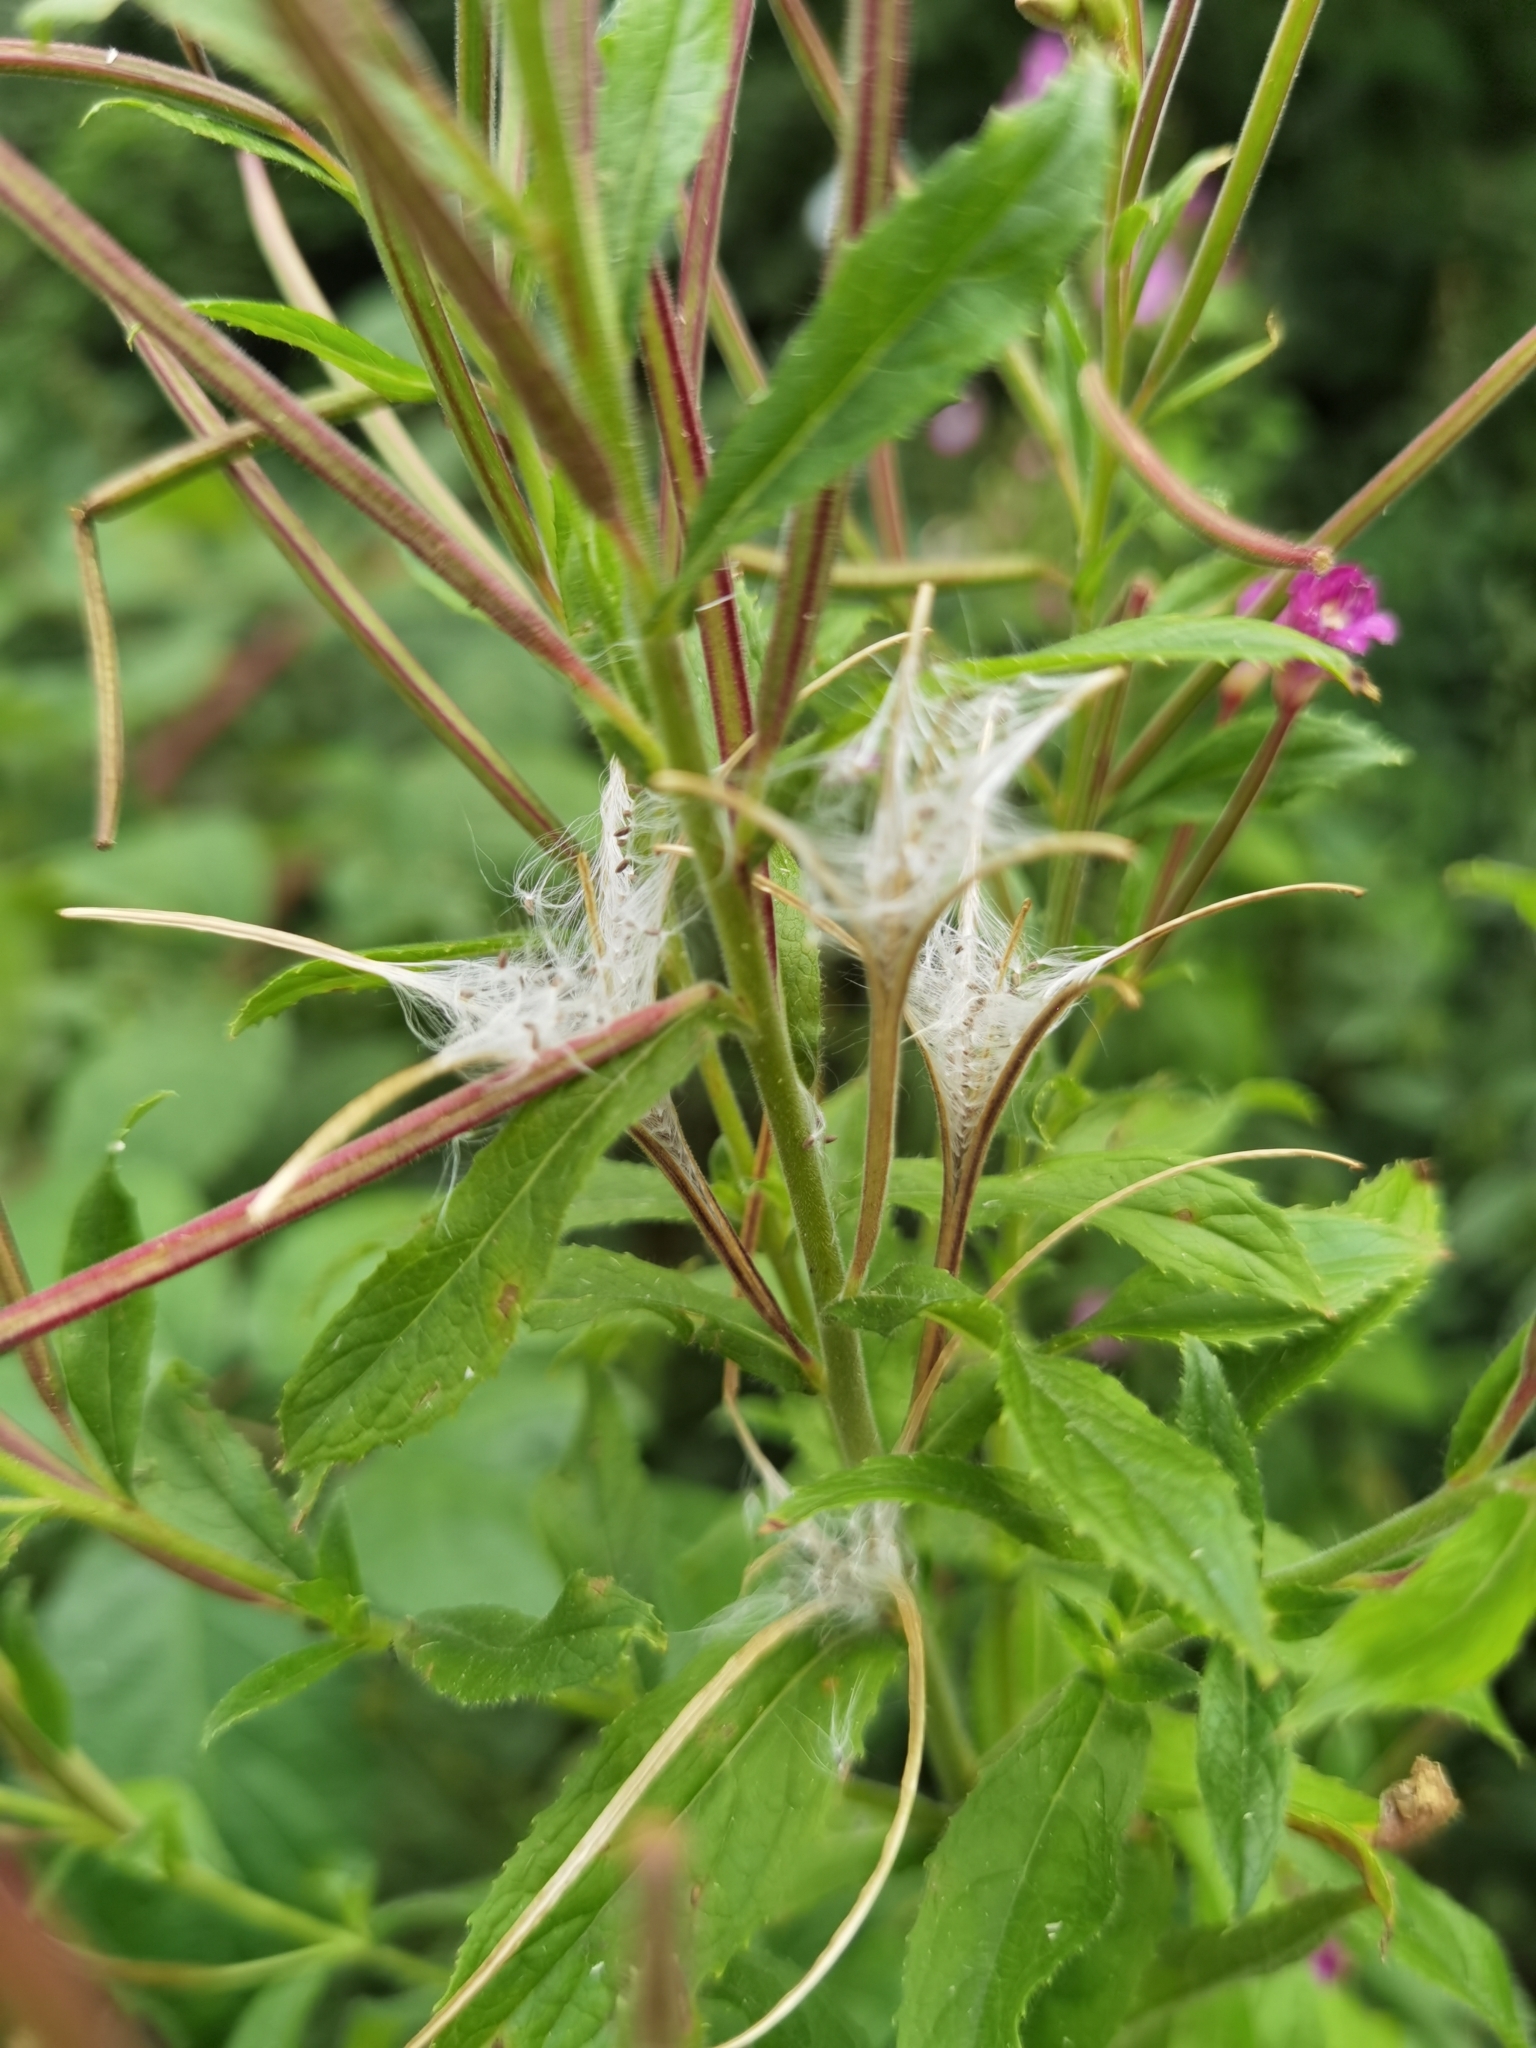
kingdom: Plantae
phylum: Tracheophyta
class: Magnoliopsida
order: Myrtales
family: Onagraceae
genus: Epilobium
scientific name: Epilobium hirsutum
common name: Great willowherb
